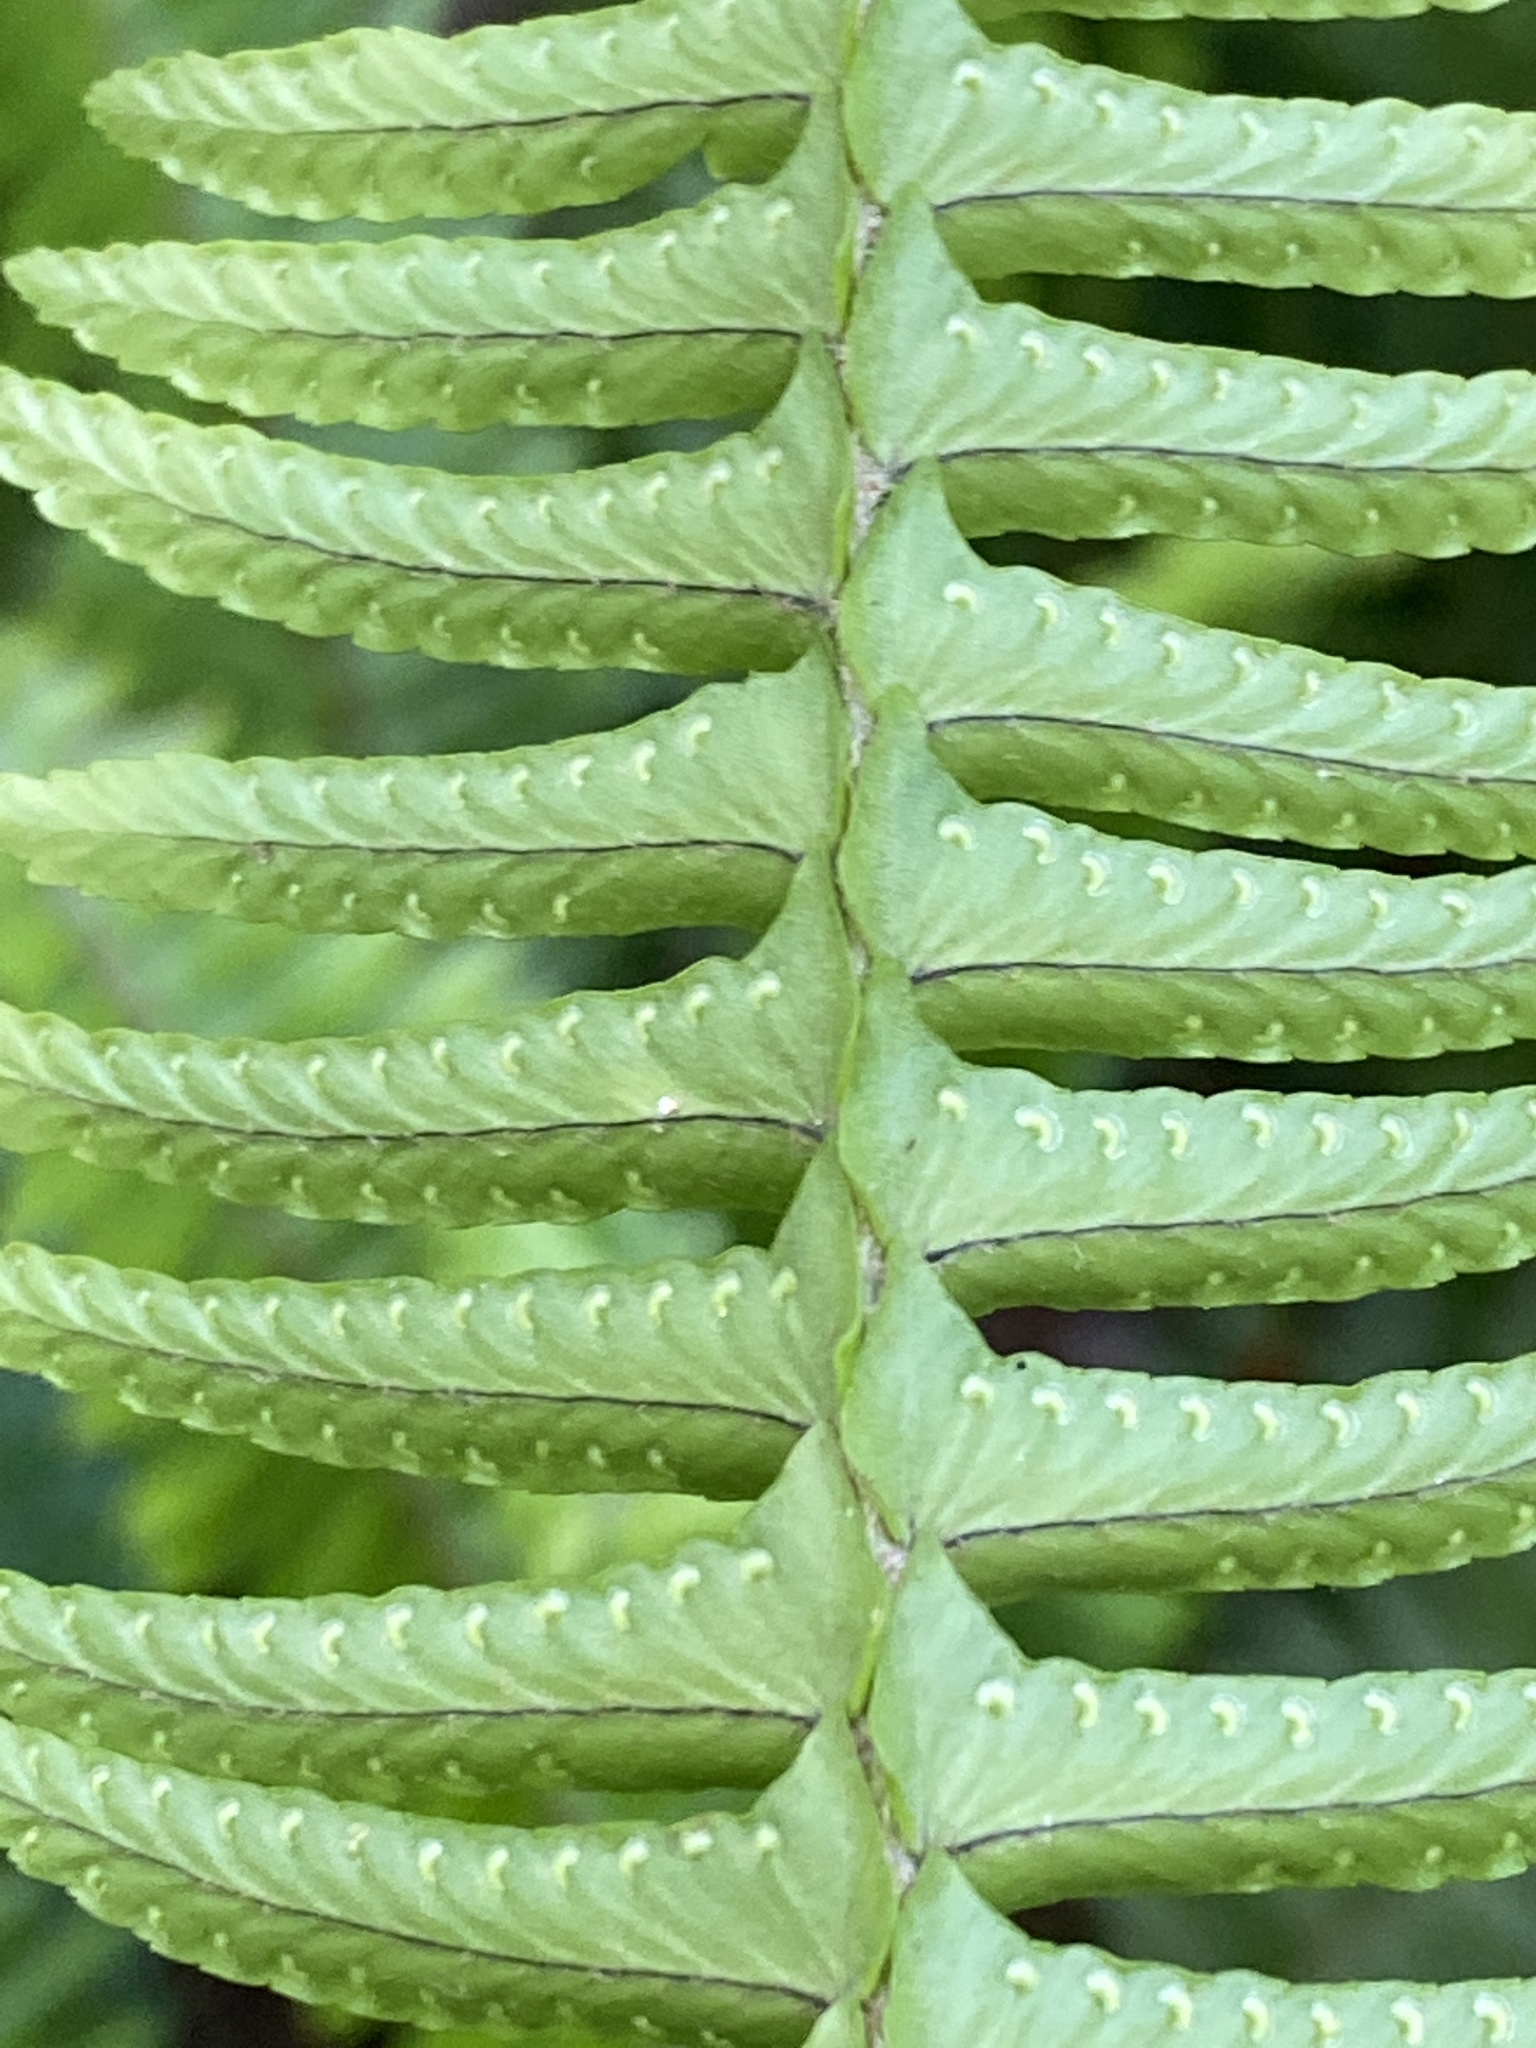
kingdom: Plantae
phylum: Tracheophyta
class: Polypodiopsida
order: Polypodiales
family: Nephrolepidaceae
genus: Nephrolepis
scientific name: Nephrolepis cordifolia
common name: Narrow swordfern
